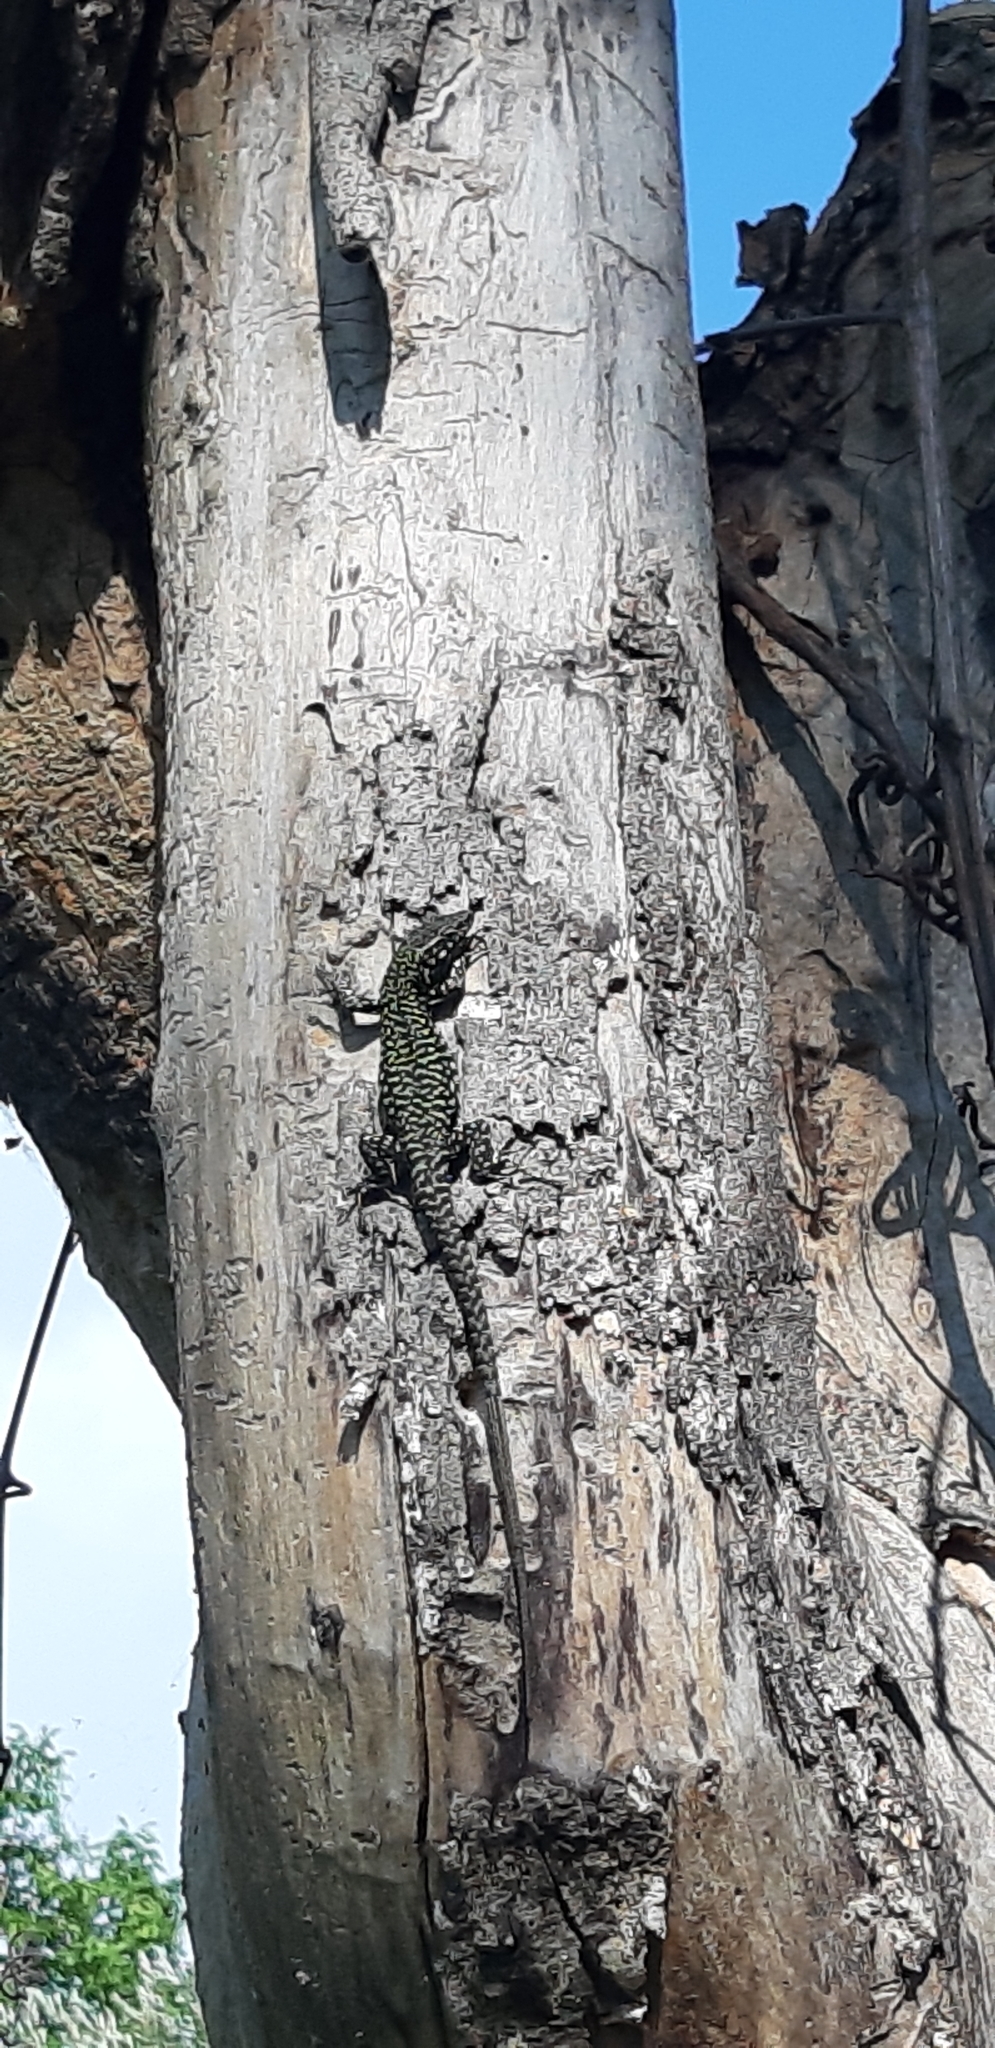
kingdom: Animalia
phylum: Chordata
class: Squamata
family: Lacertidae
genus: Podarcis
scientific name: Podarcis muralis
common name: Common wall lizard
